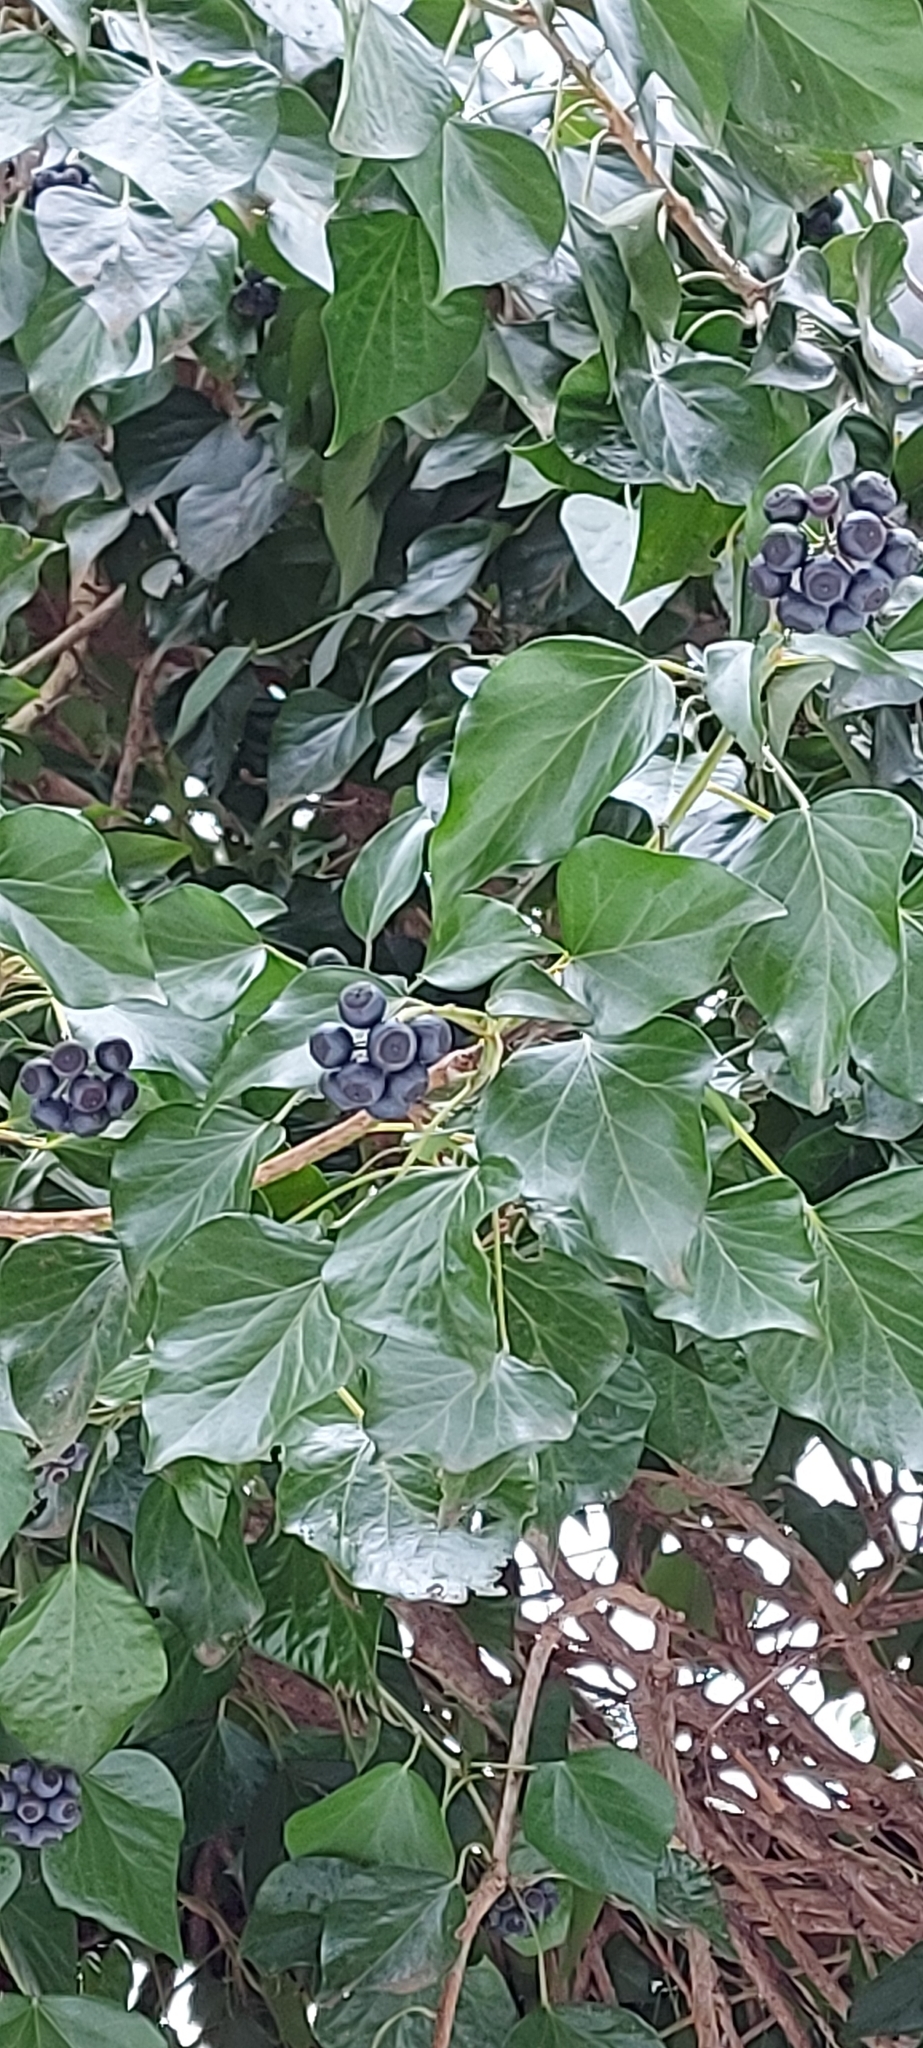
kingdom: Plantae
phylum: Tracheophyta
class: Magnoliopsida
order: Apiales
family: Araliaceae
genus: Hedera
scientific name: Hedera helix
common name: Ivy
